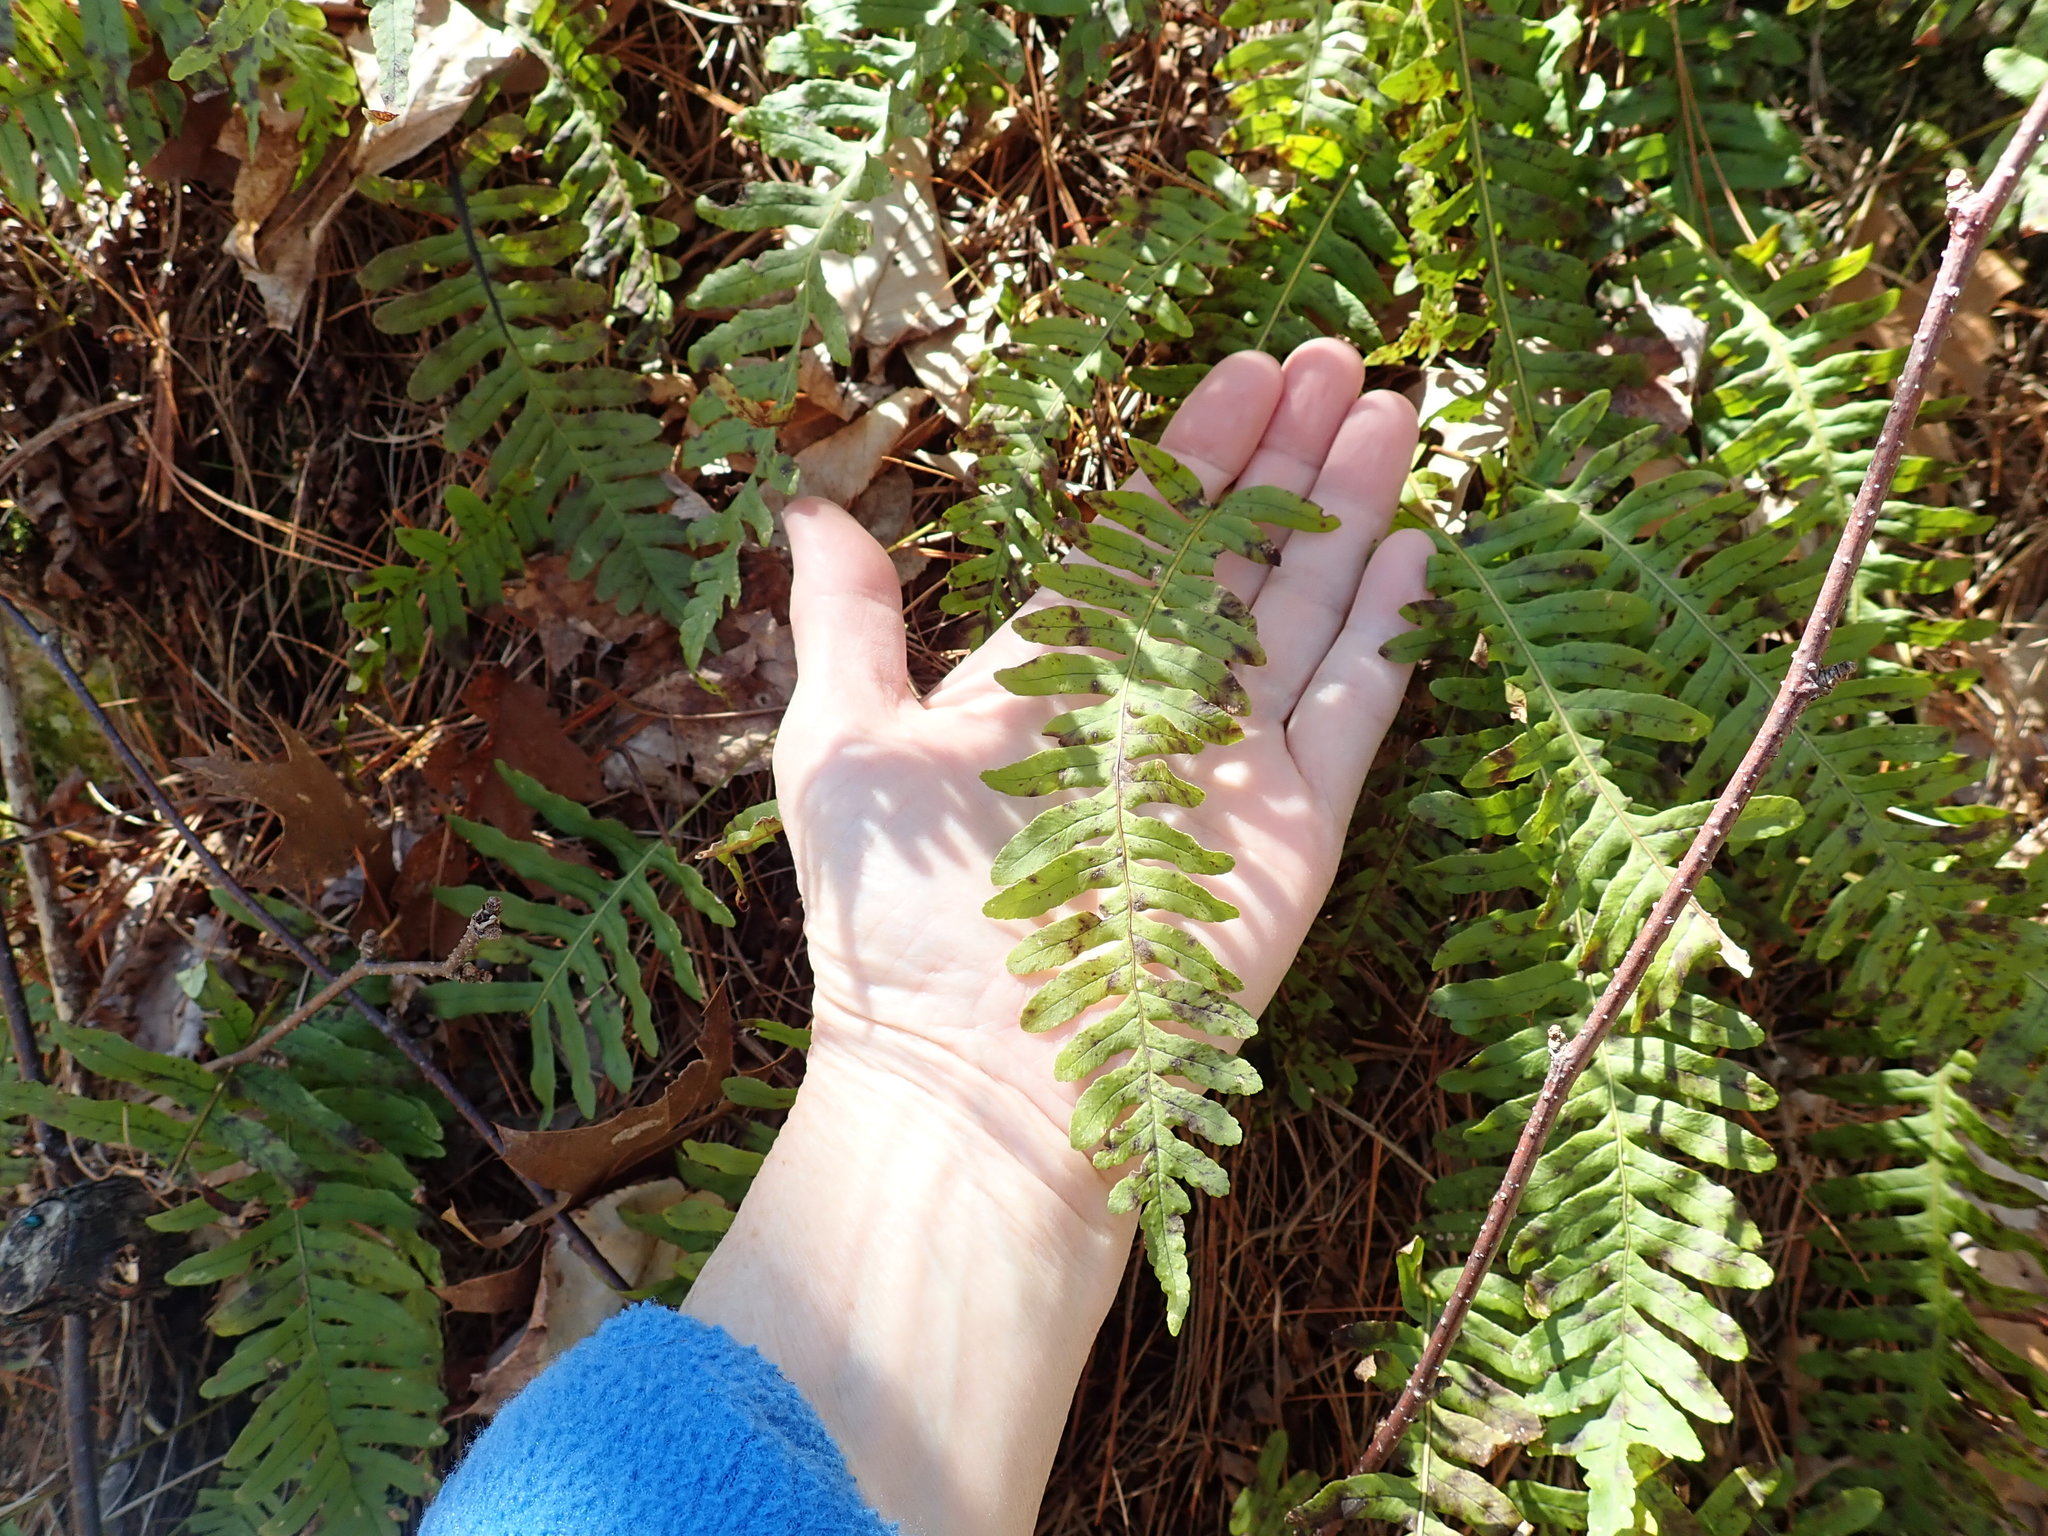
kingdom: Plantae
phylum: Tracheophyta
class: Polypodiopsida
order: Polypodiales
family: Polypodiaceae
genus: Polypodium
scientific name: Polypodium virginianum
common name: American wall fern
